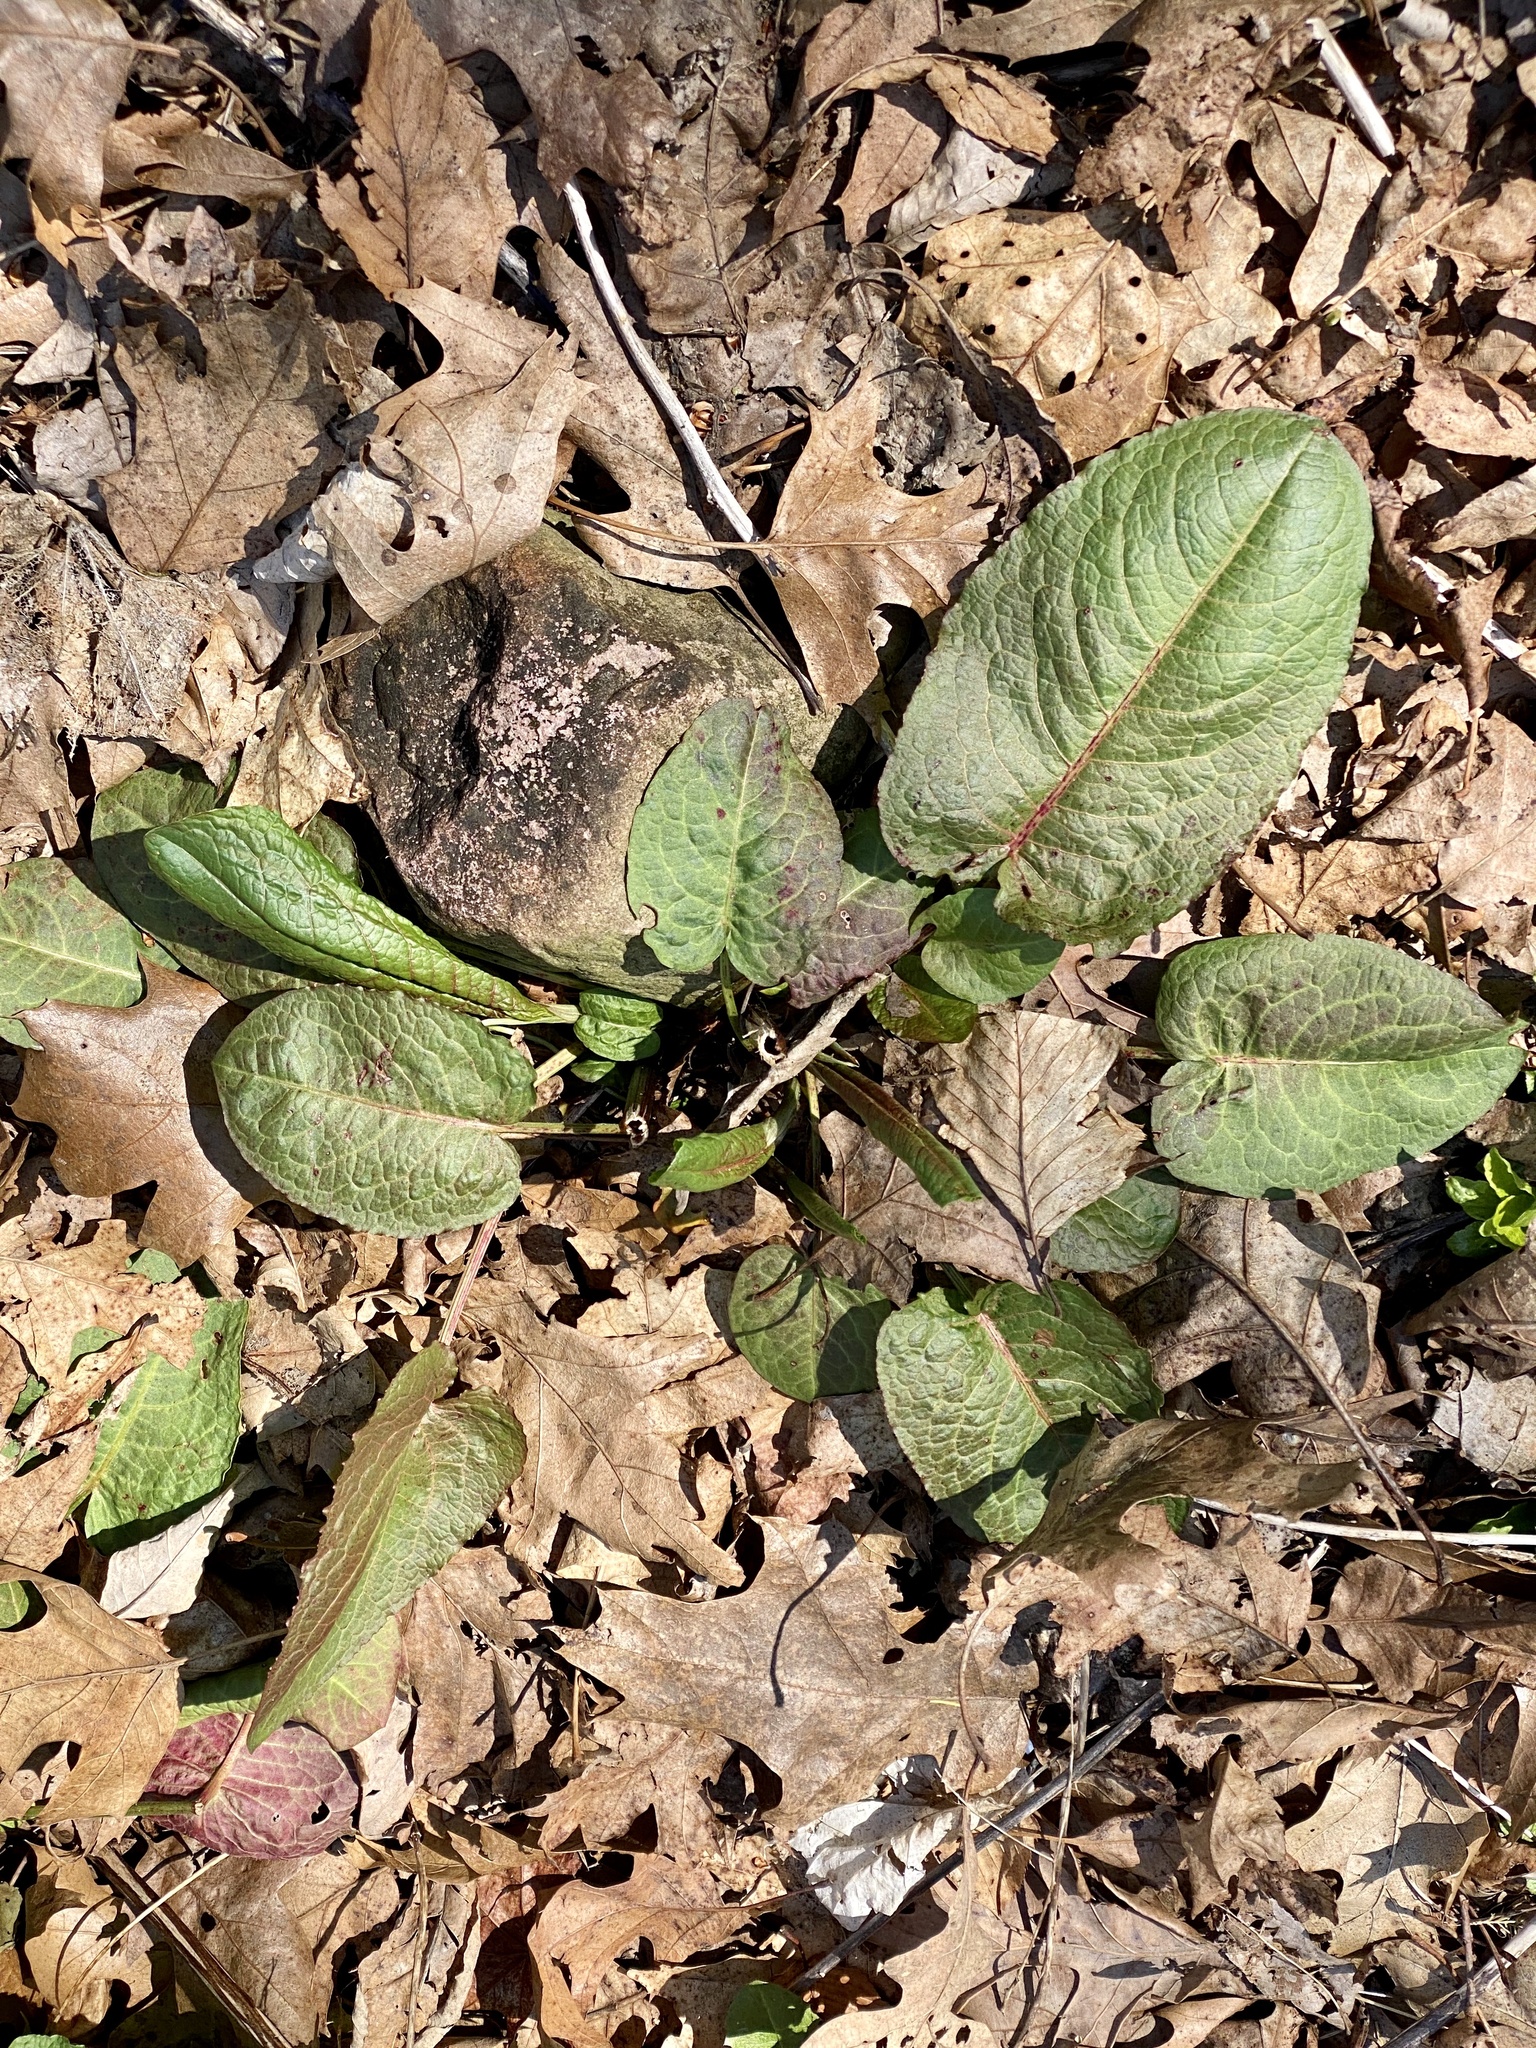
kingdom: Plantae
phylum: Tracheophyta
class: Magnoliopsida
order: Caryophyllales
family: Polygonaceae
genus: Rumex
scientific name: Rumex obtusifolius
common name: Bitter dock
